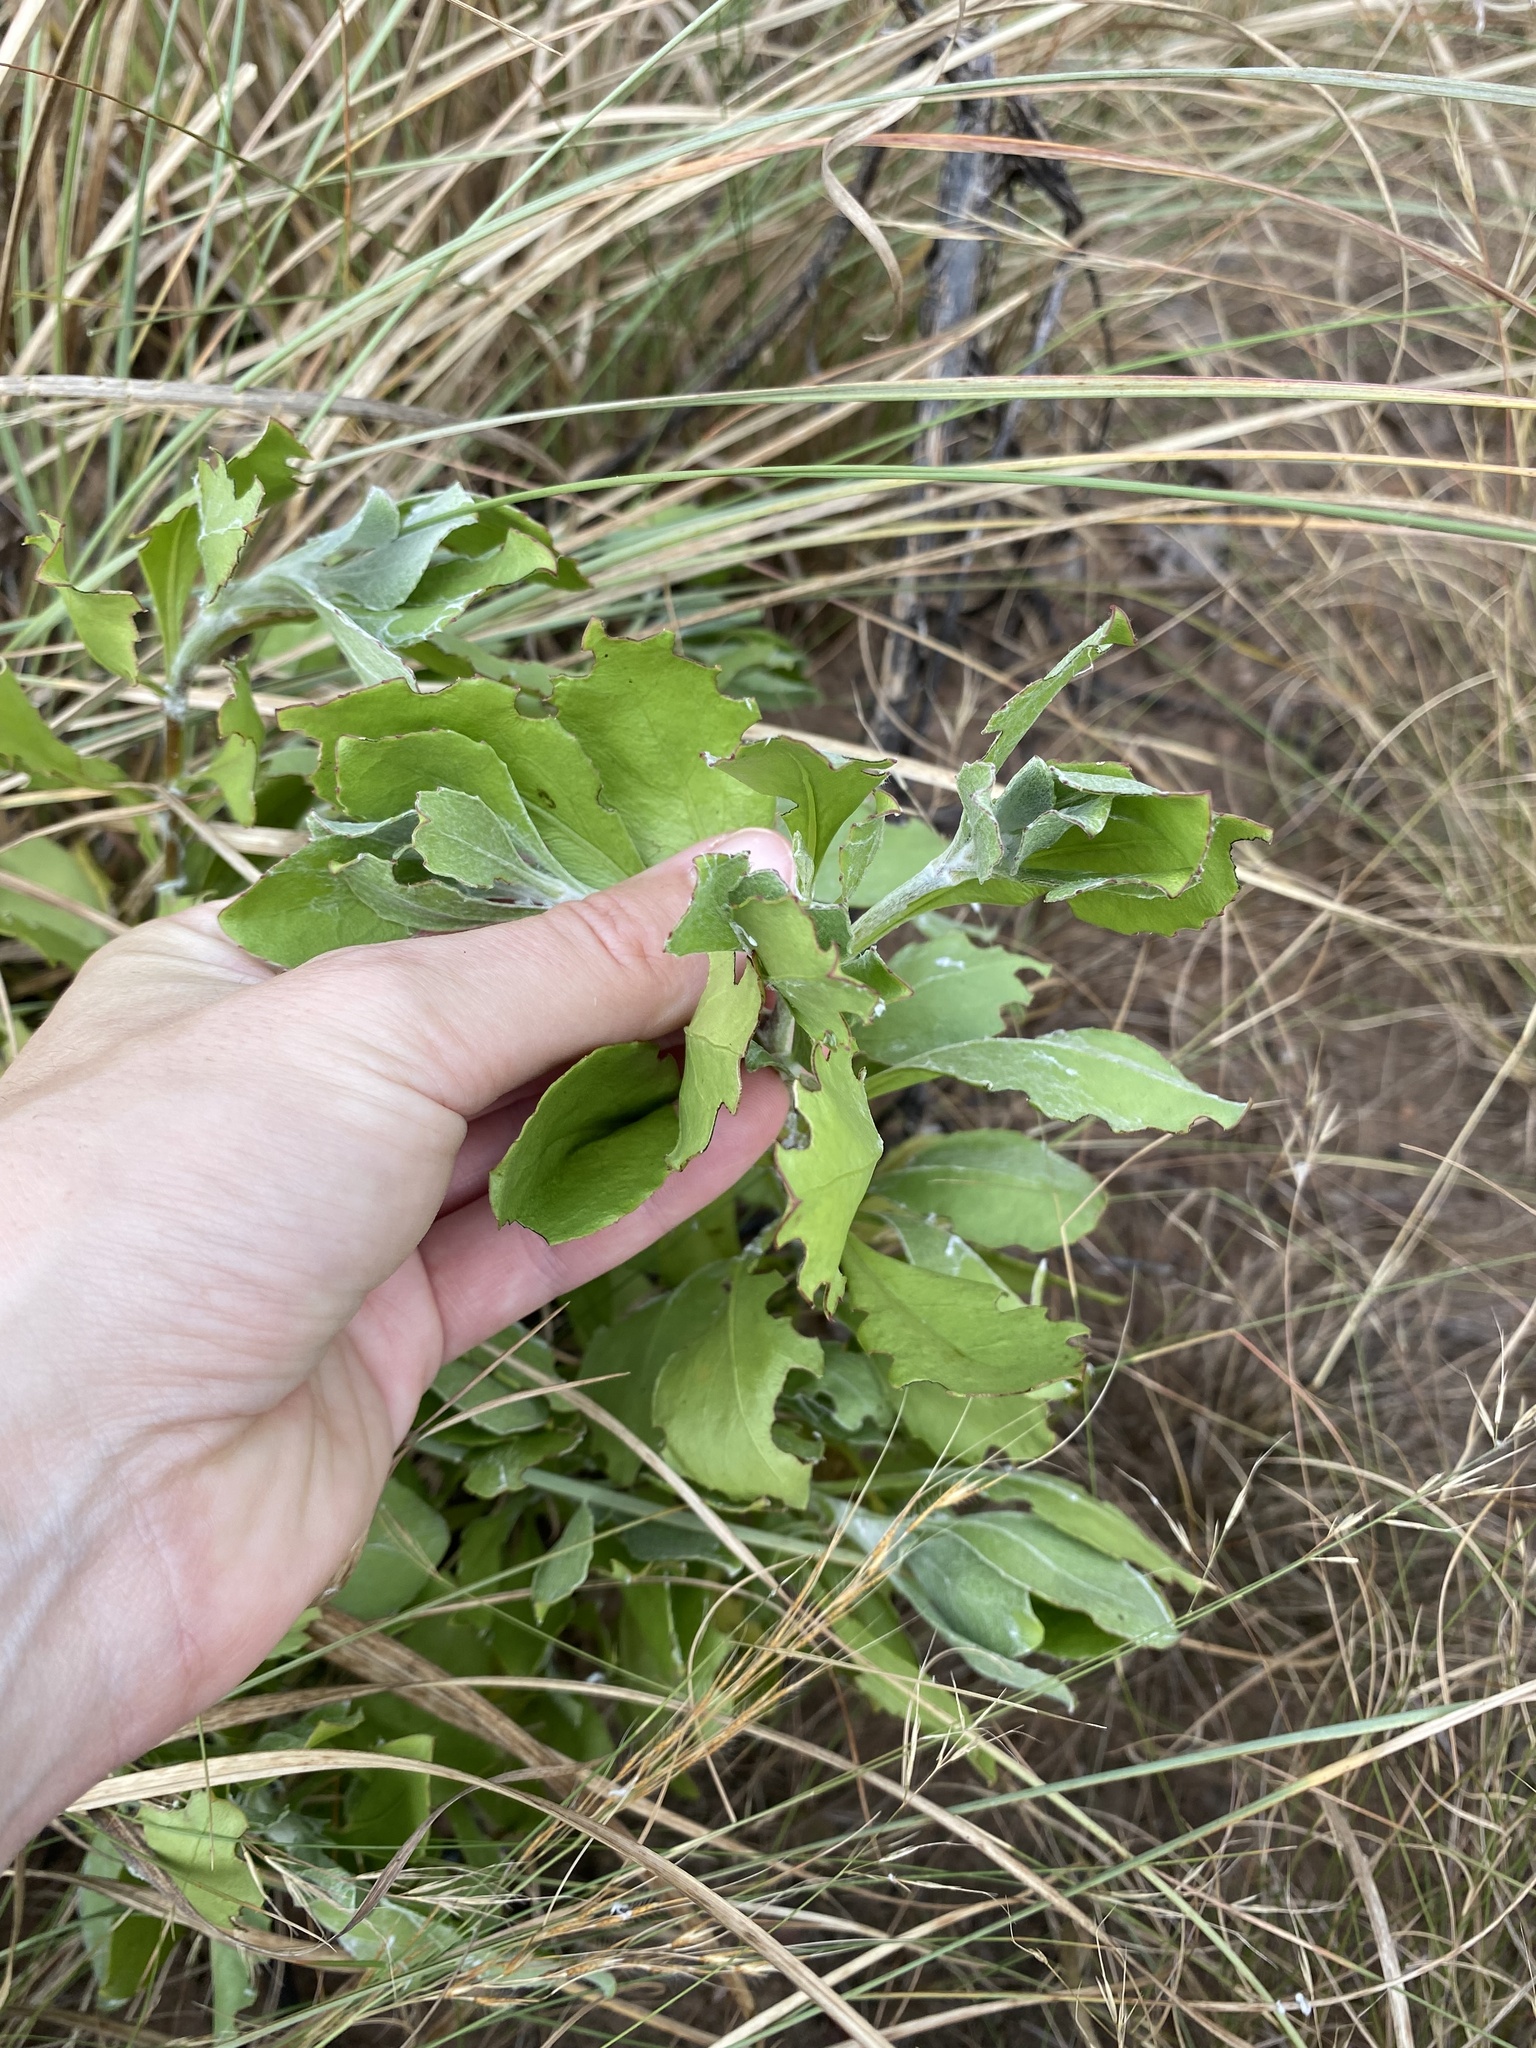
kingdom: Plantae
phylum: Tracheophyta
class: Magnoliopsida
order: Asterales
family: Asteraceae
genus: Osteospermum
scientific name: Osteospermum moniliferum
